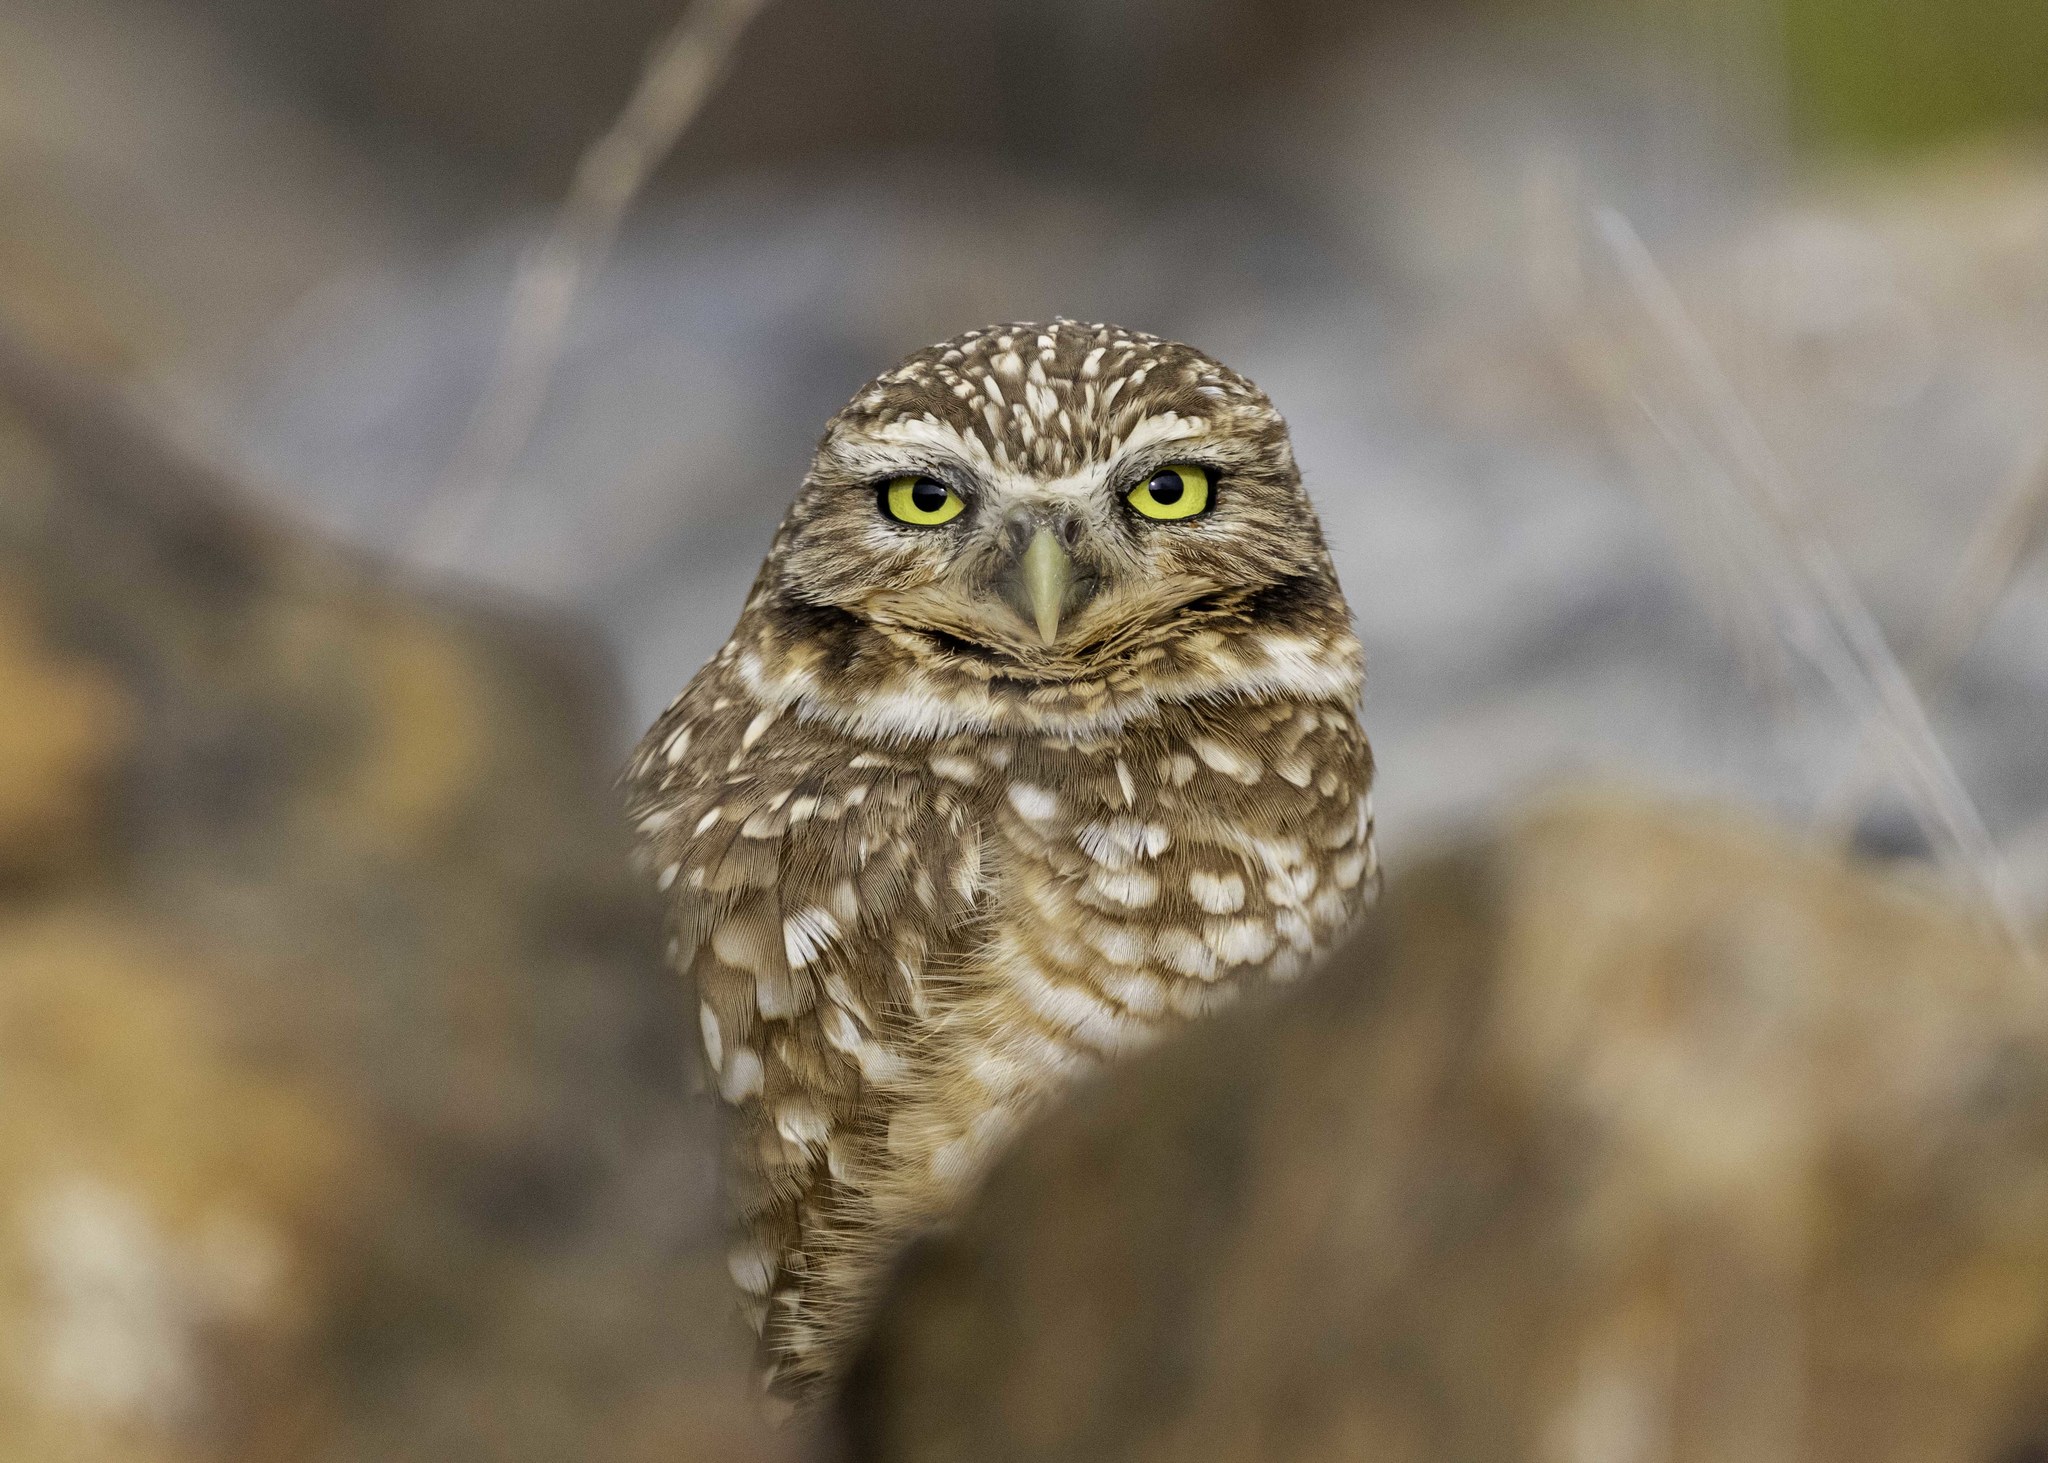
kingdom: Animalia
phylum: Chordata
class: Aves
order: Strigiformes
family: Strigidae
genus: Athene
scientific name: Athene cunicularia
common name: Burrowing owl
